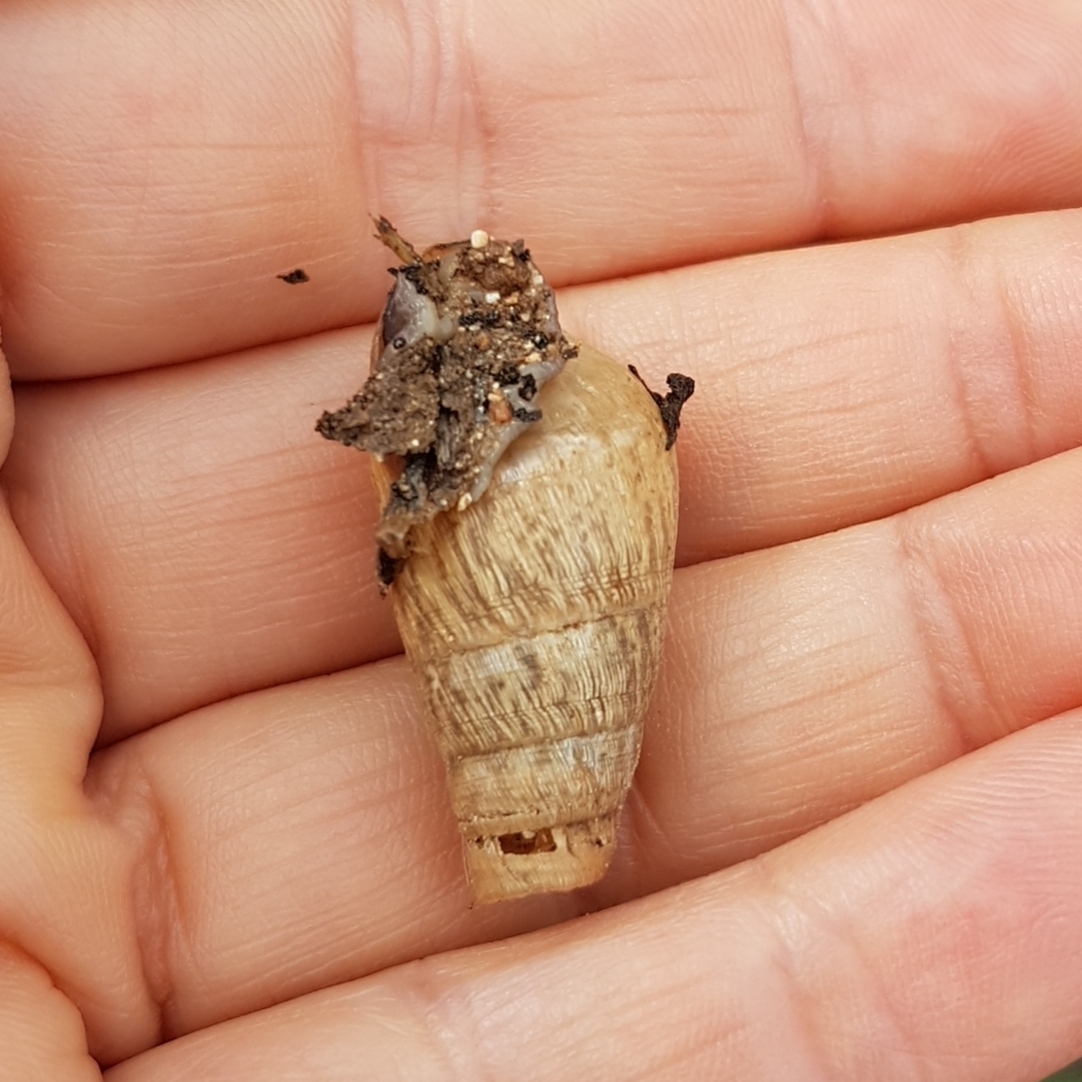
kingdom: Animalia
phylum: Mollusca
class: Gastropoda
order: Stylommatophora
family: Achatinidae
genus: Rumina
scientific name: Rumina decollata
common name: Decollate snail
